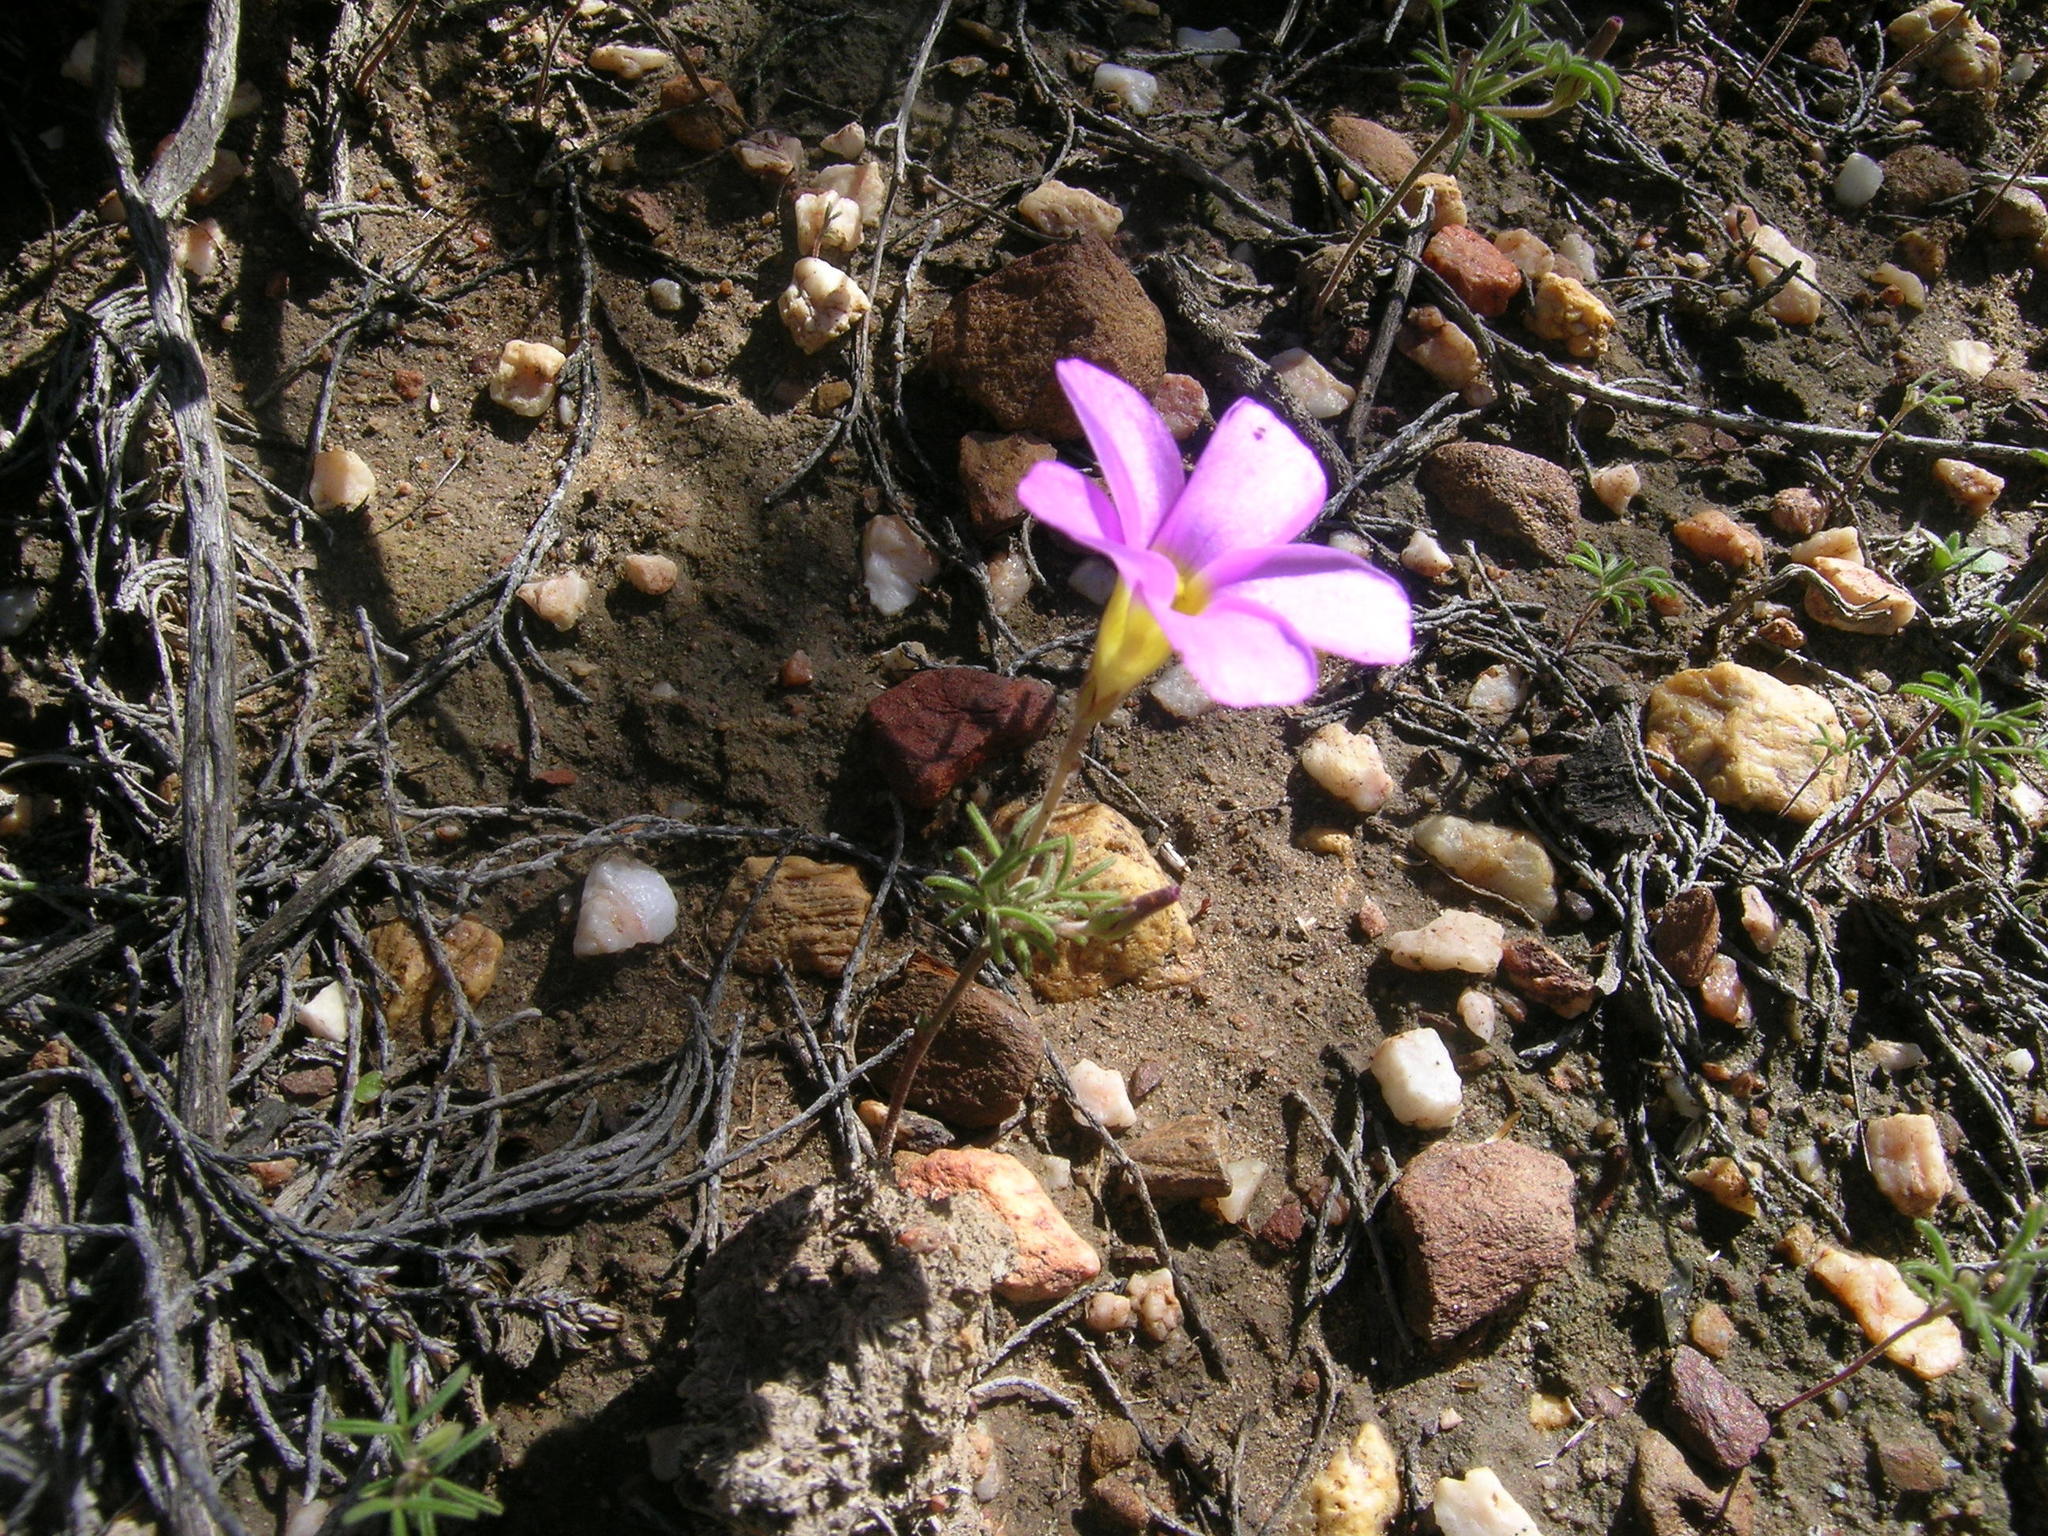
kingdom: Plantae
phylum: Tracheophyta
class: Magnoliopsida
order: Oxalidales
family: Oxalidaceae
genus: Oxalis
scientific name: Oxalis ciliaris
